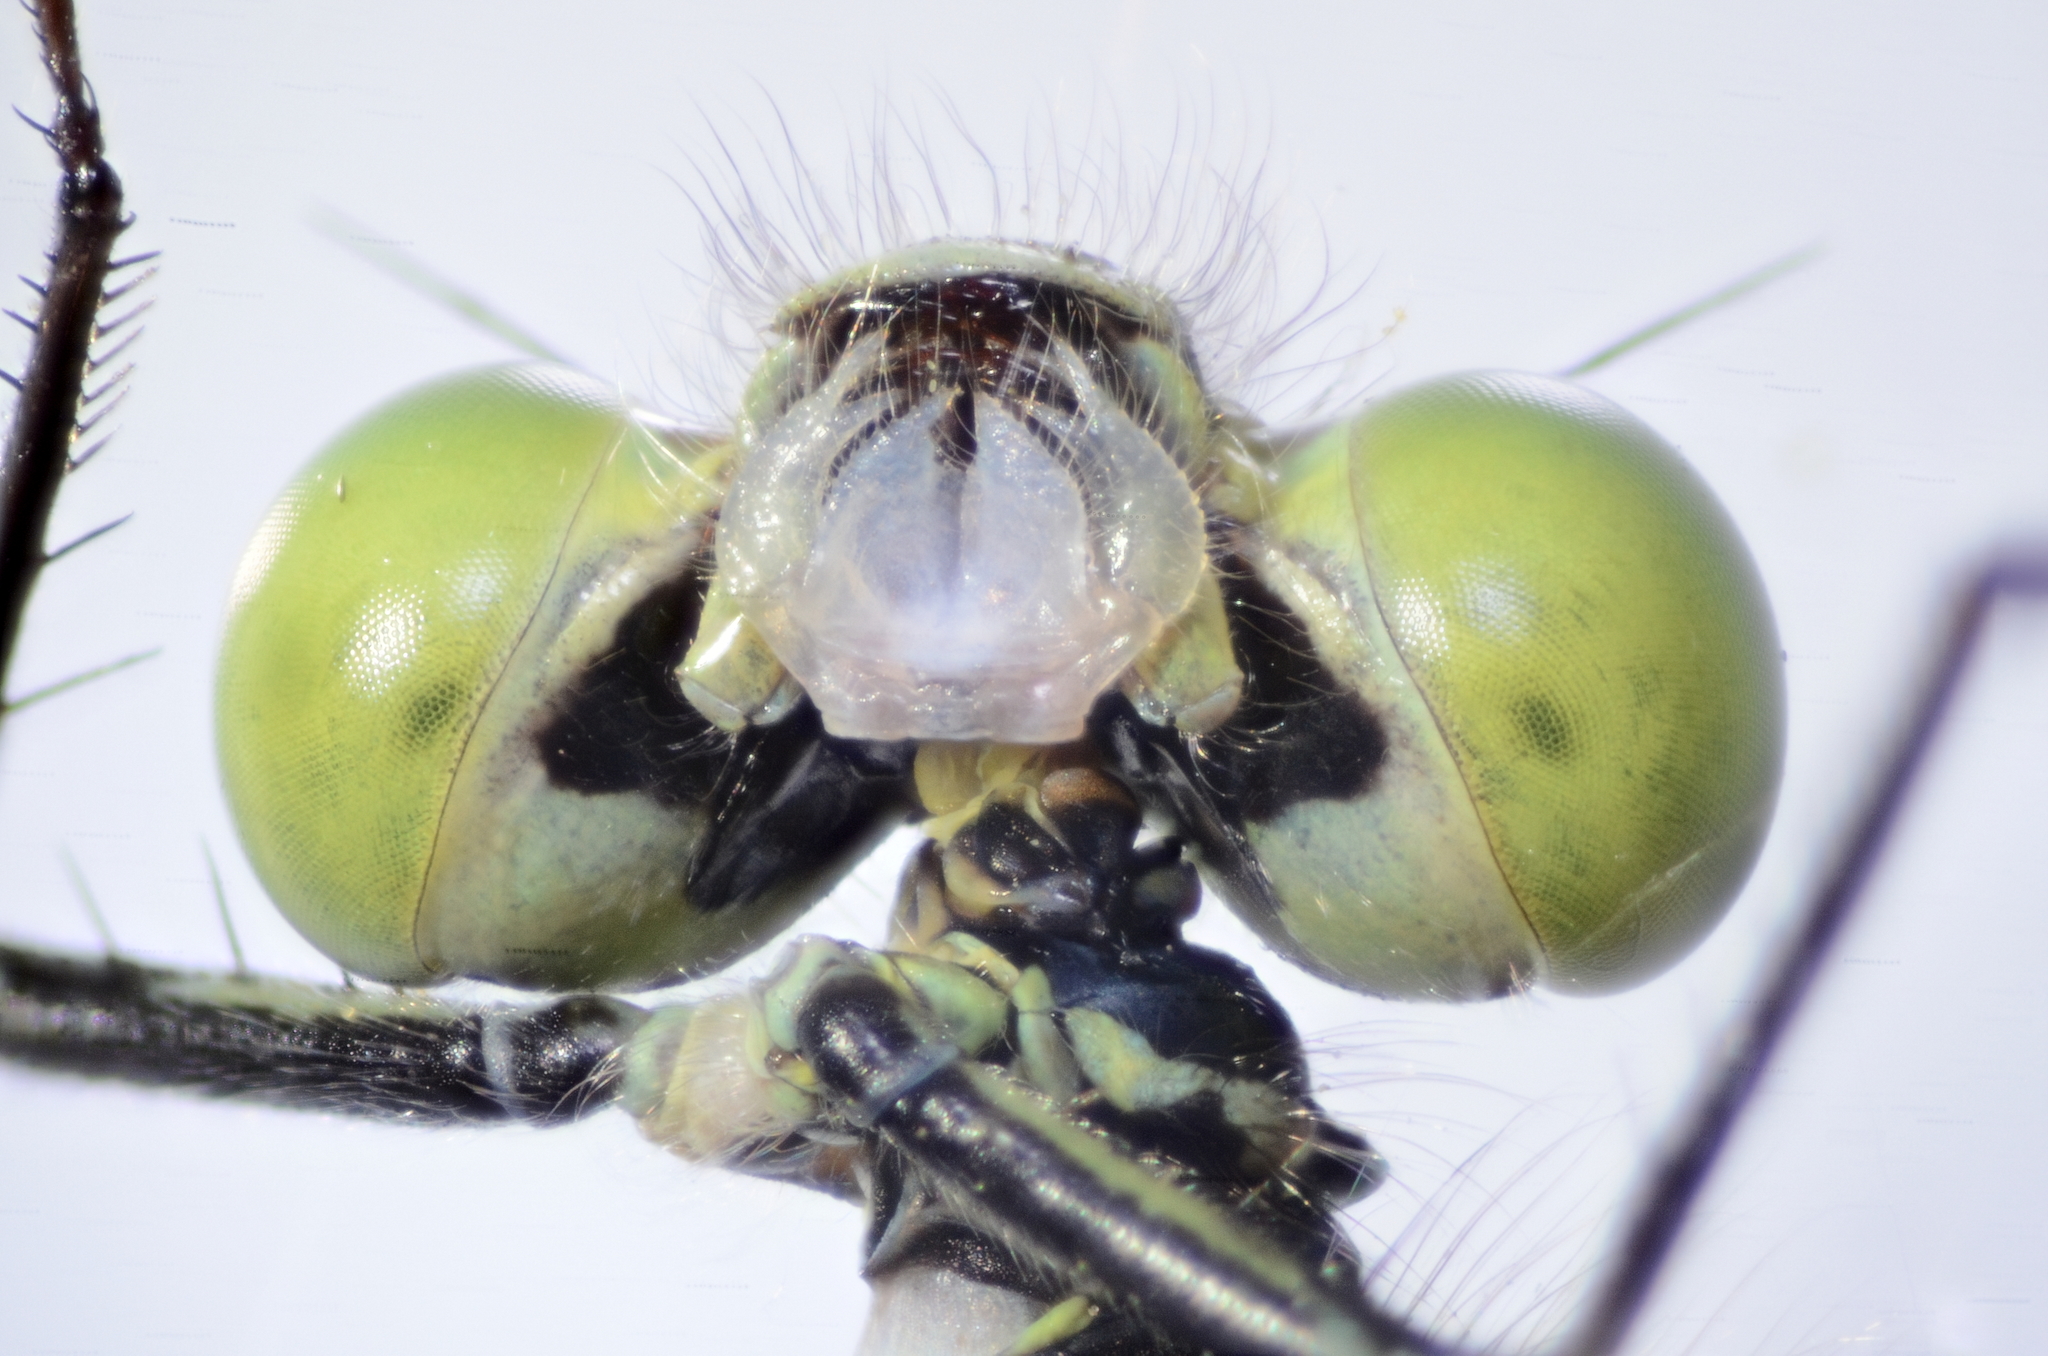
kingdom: Animalia
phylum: Arthropoda
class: Insecta
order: Odonata
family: Coenagrionidae
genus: Ischnura
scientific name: Ischnura cervula
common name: Pacific forktail
